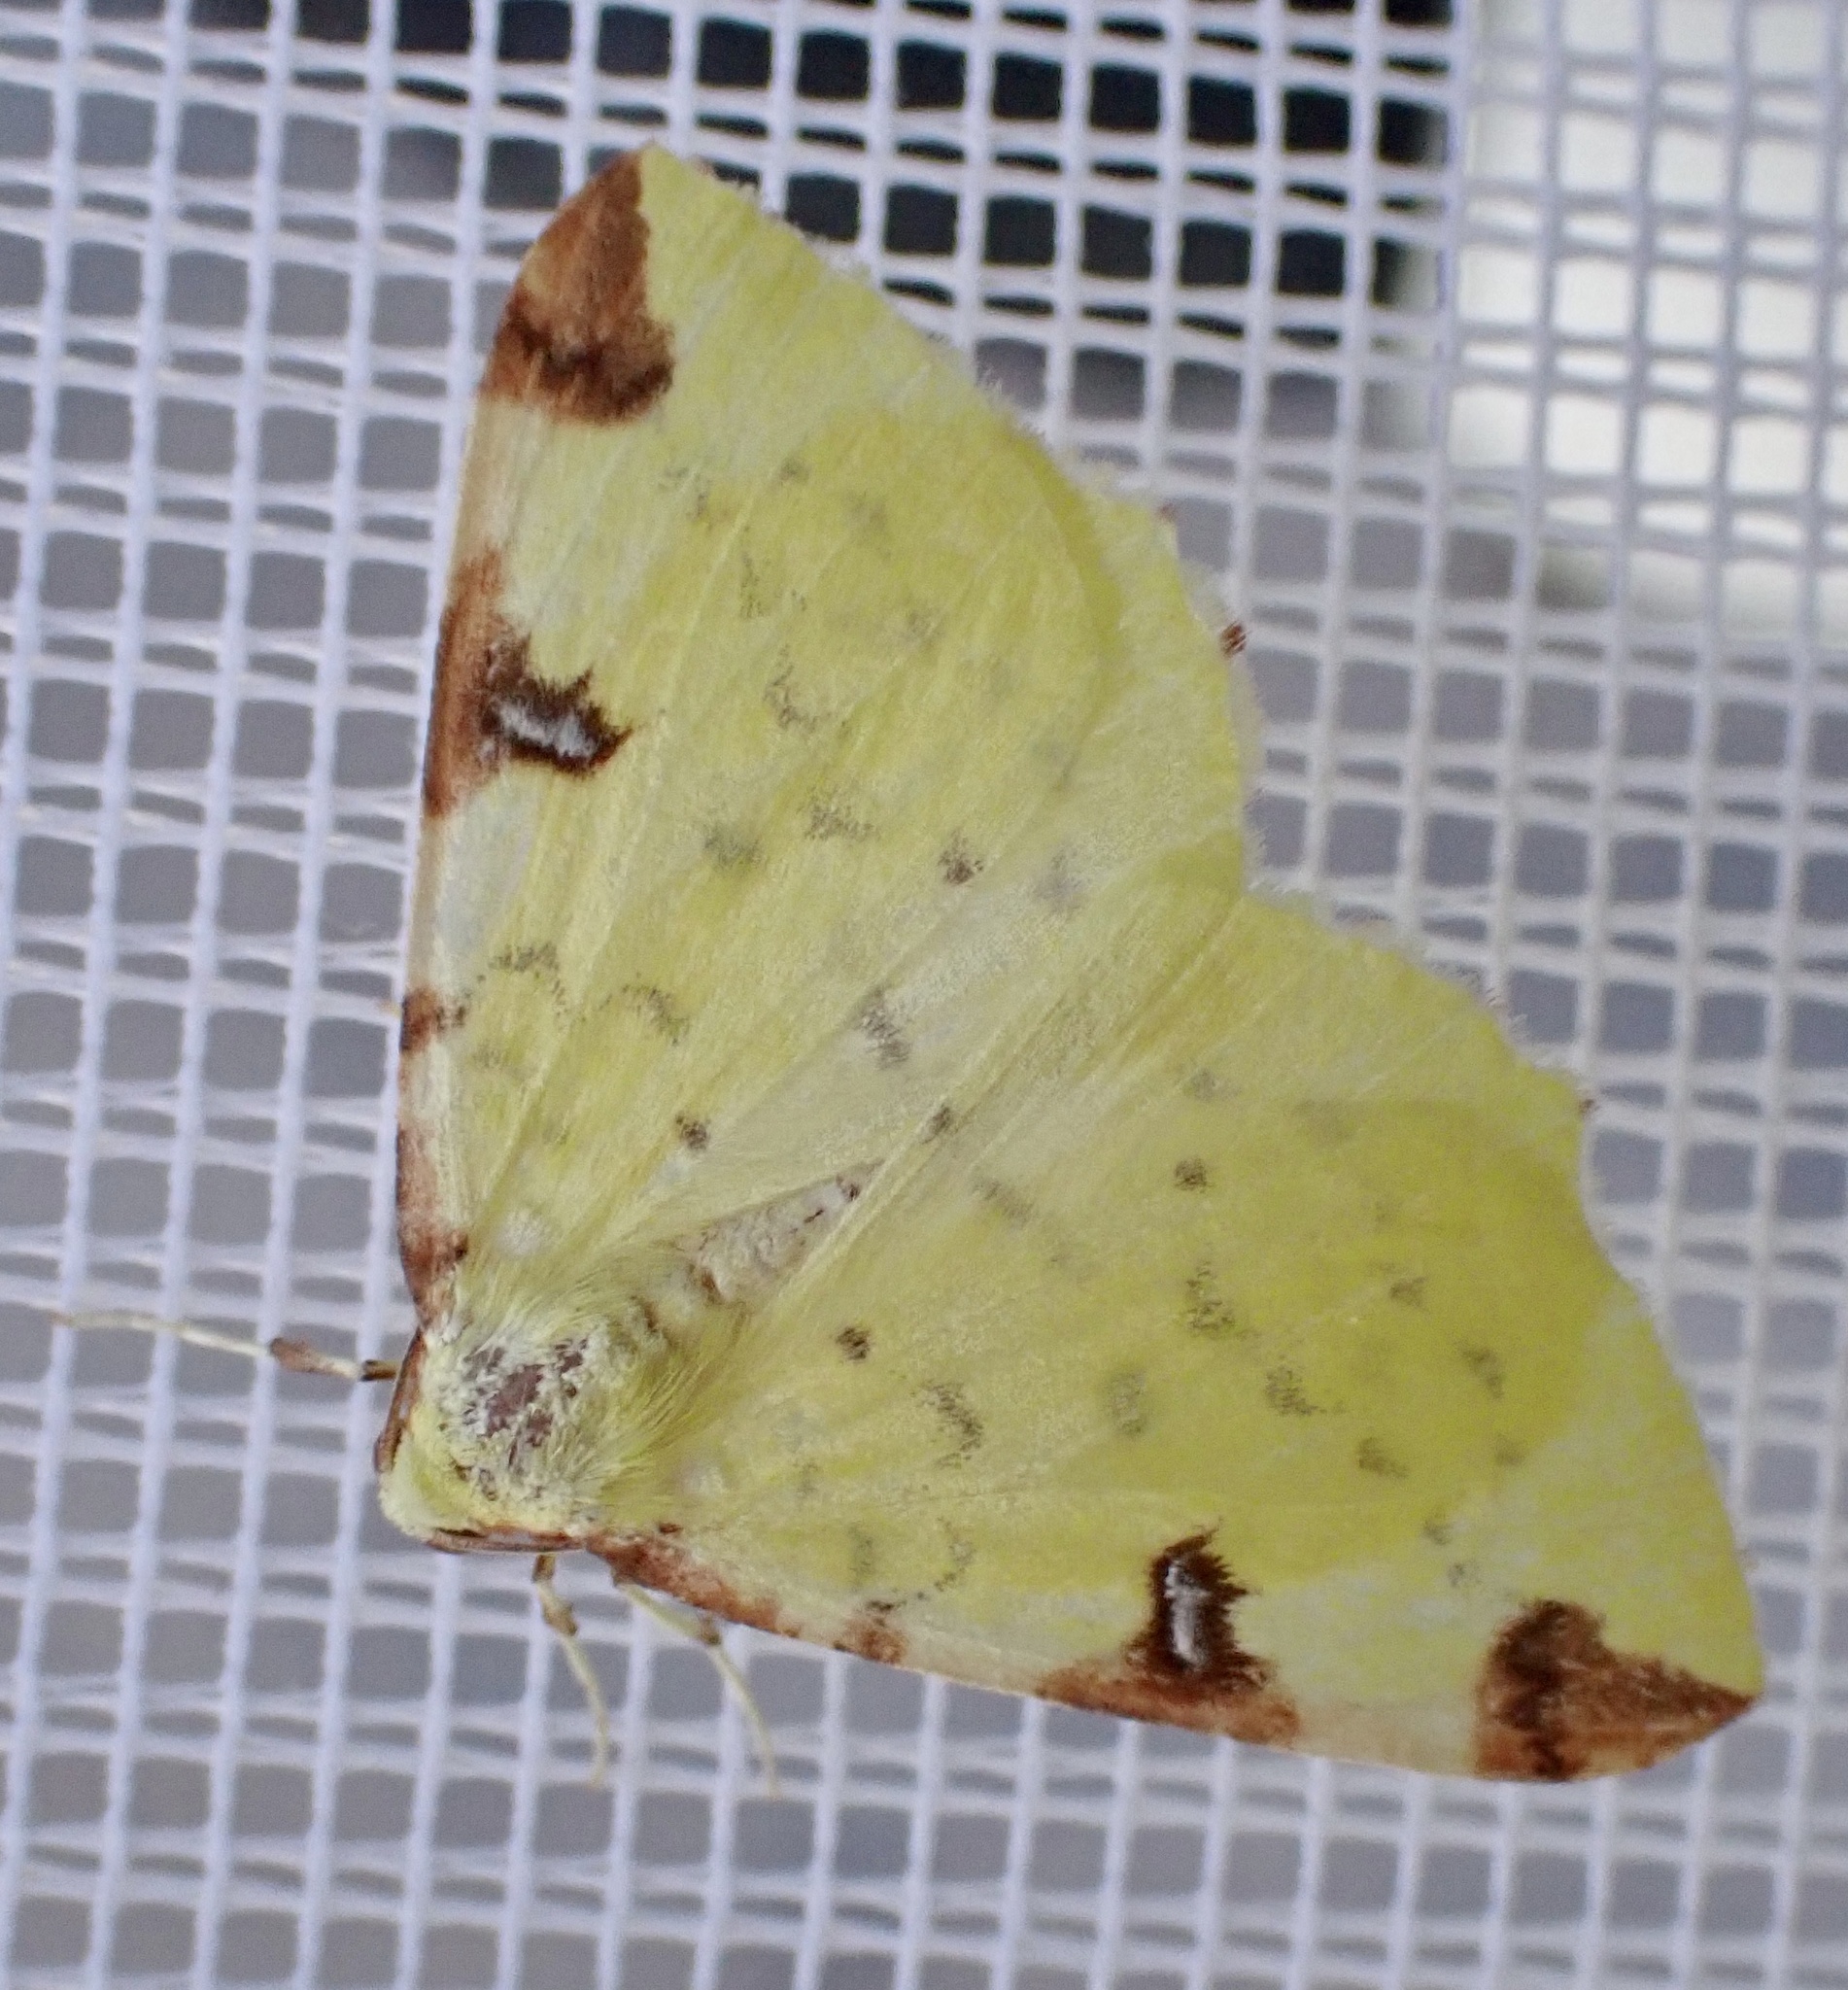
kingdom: Animalia
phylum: Arthropoda
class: Insecta
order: Lepidoptera
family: Geometridae
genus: Opisthograptis
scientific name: Opisthograptis luteolata
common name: Brimstone moth
